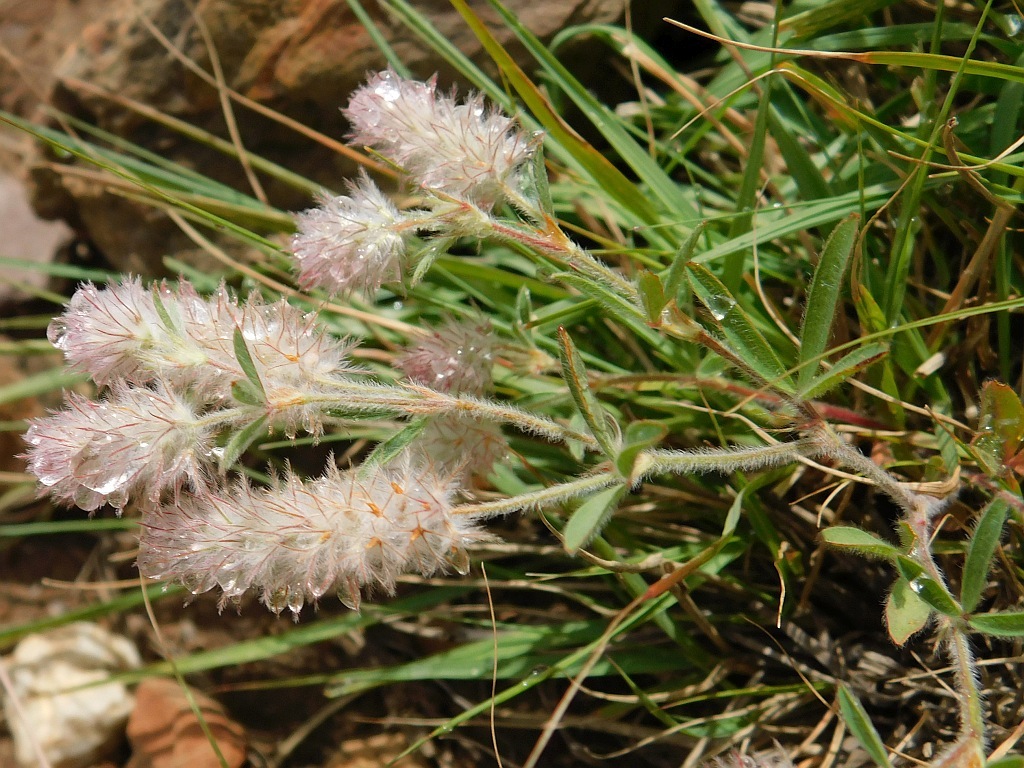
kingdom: Plantae
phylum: Tracheophyta
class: Magnoliopsida
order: Fabales
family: Fabaceae
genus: Trifolium
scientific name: Trifolium arvense
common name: Hare's-foot clover
